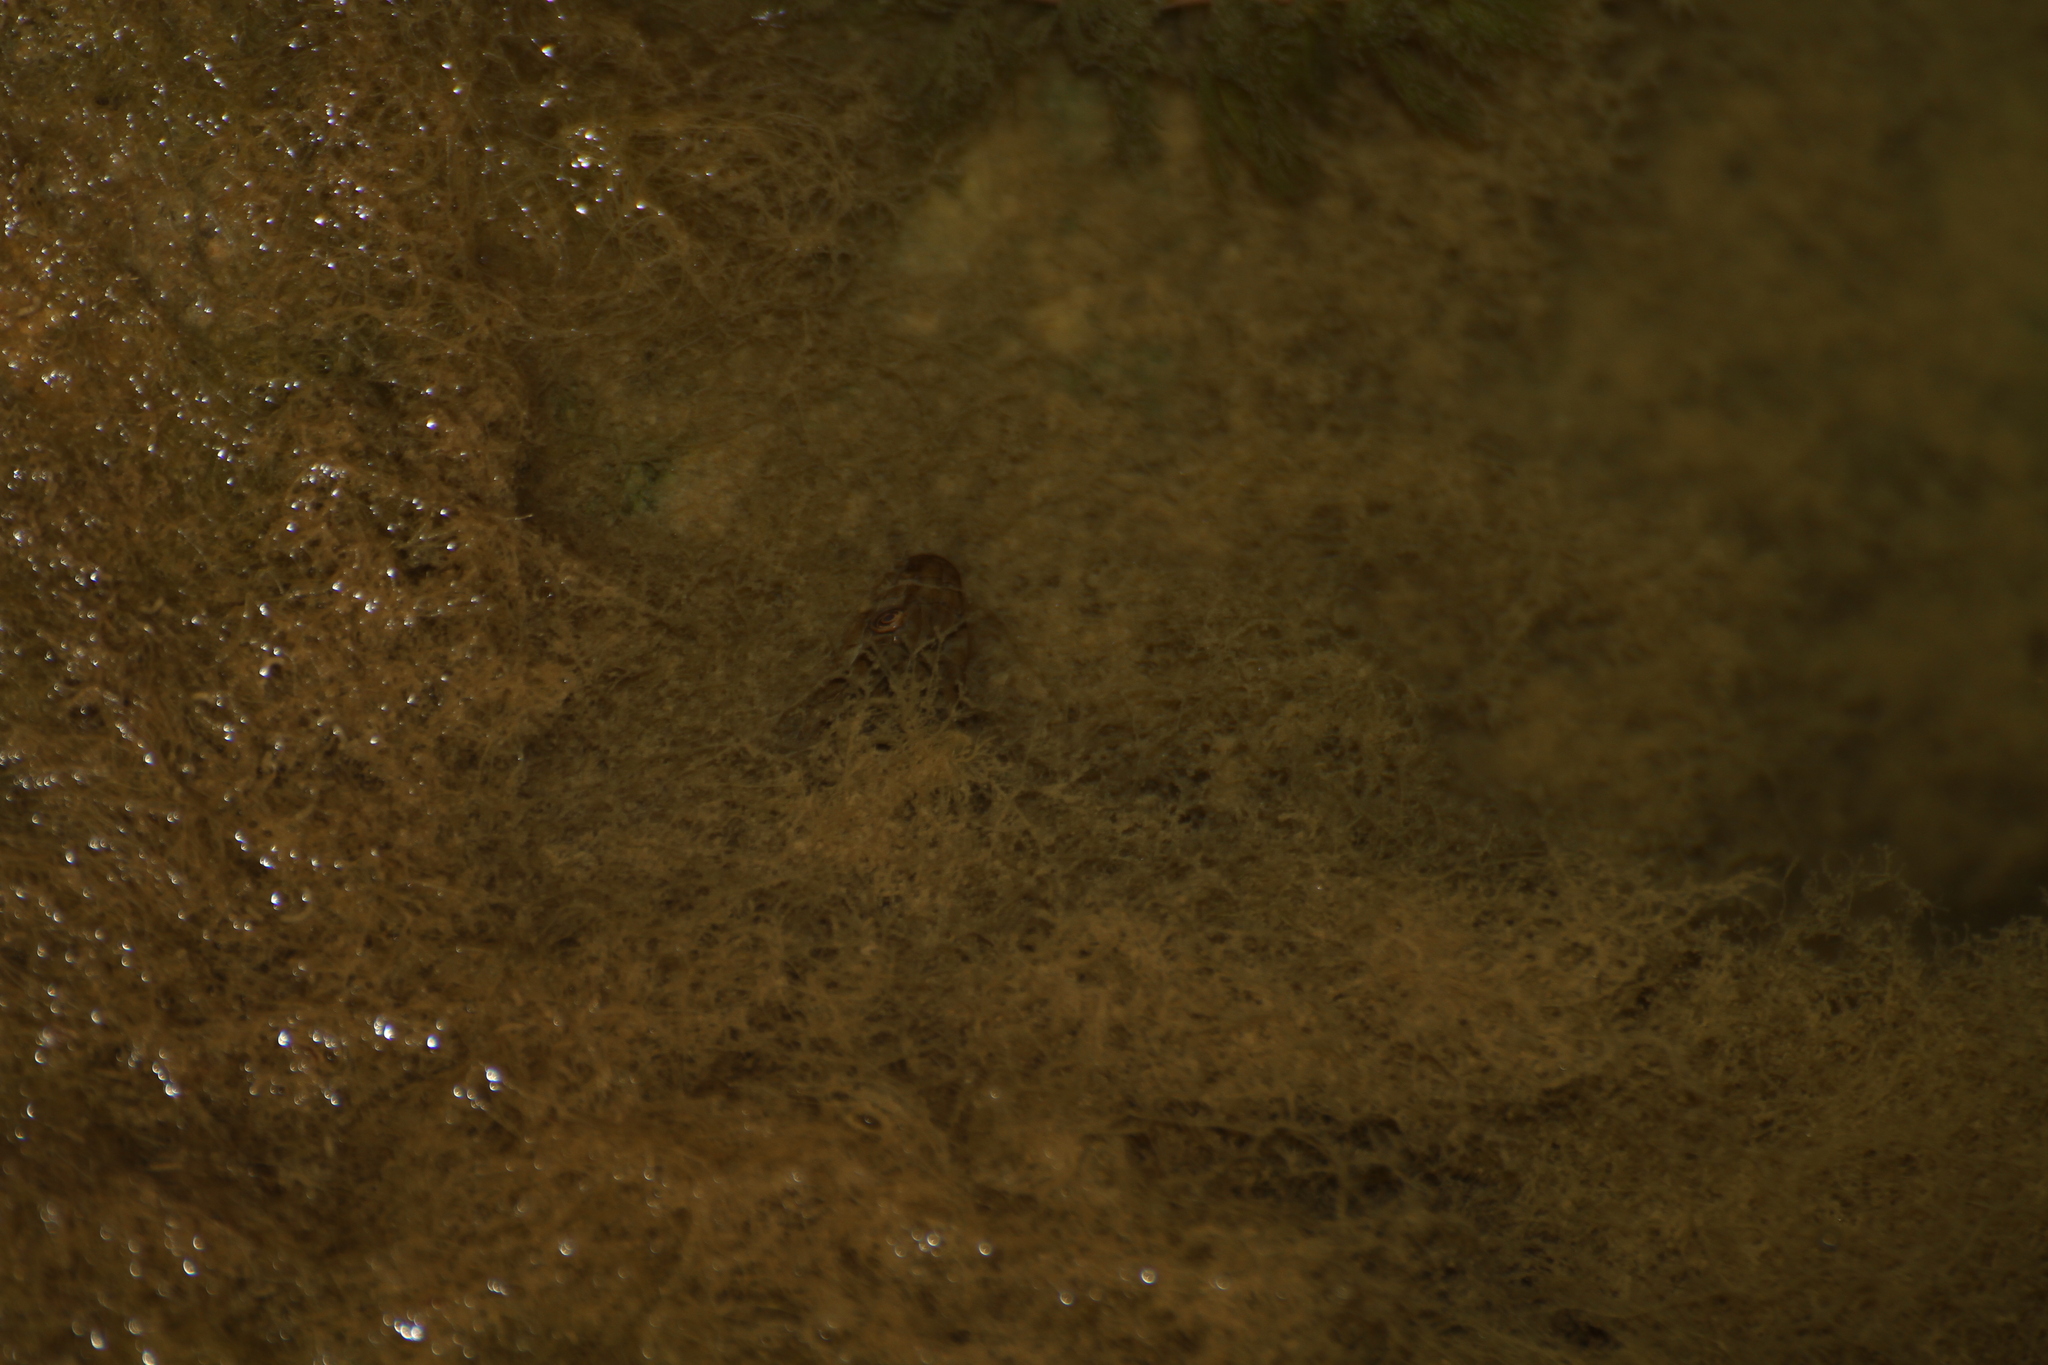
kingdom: Animalia
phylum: Chordata
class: Squamata
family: Colubridae
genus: Natrix
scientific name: Natrix maura
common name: Viperine water snake
